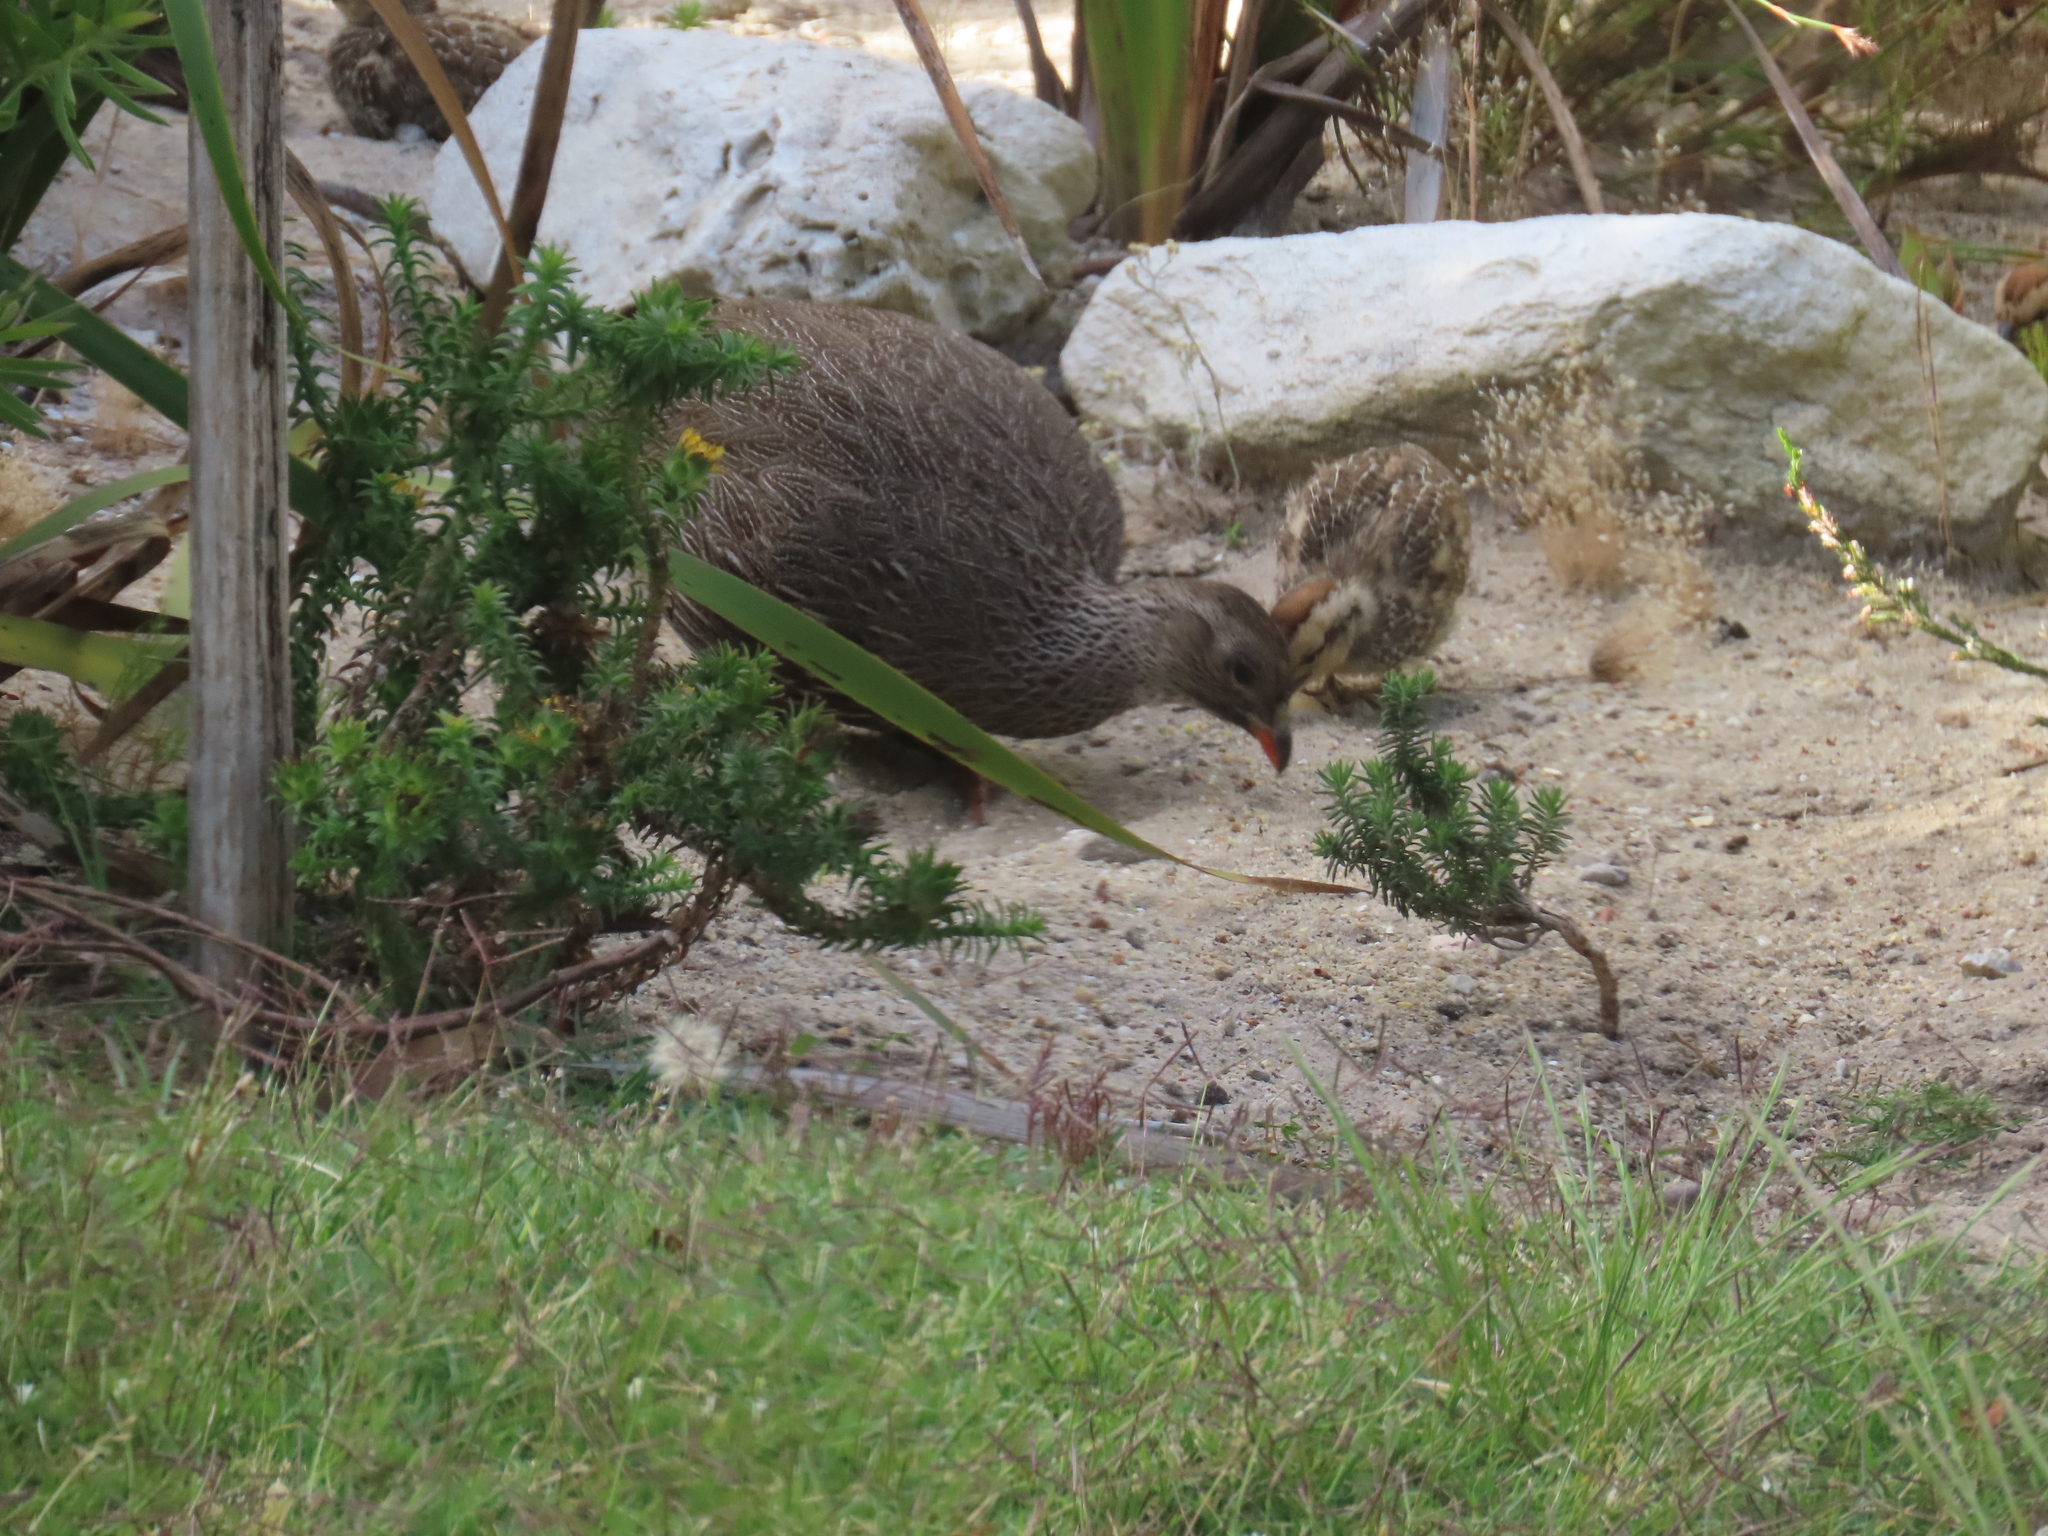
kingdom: Animalia
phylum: Chordata
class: Aves
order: Galliformes
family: Phasianidae
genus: Pternistis
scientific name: Pternistis capensis
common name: Cape spurfowl
